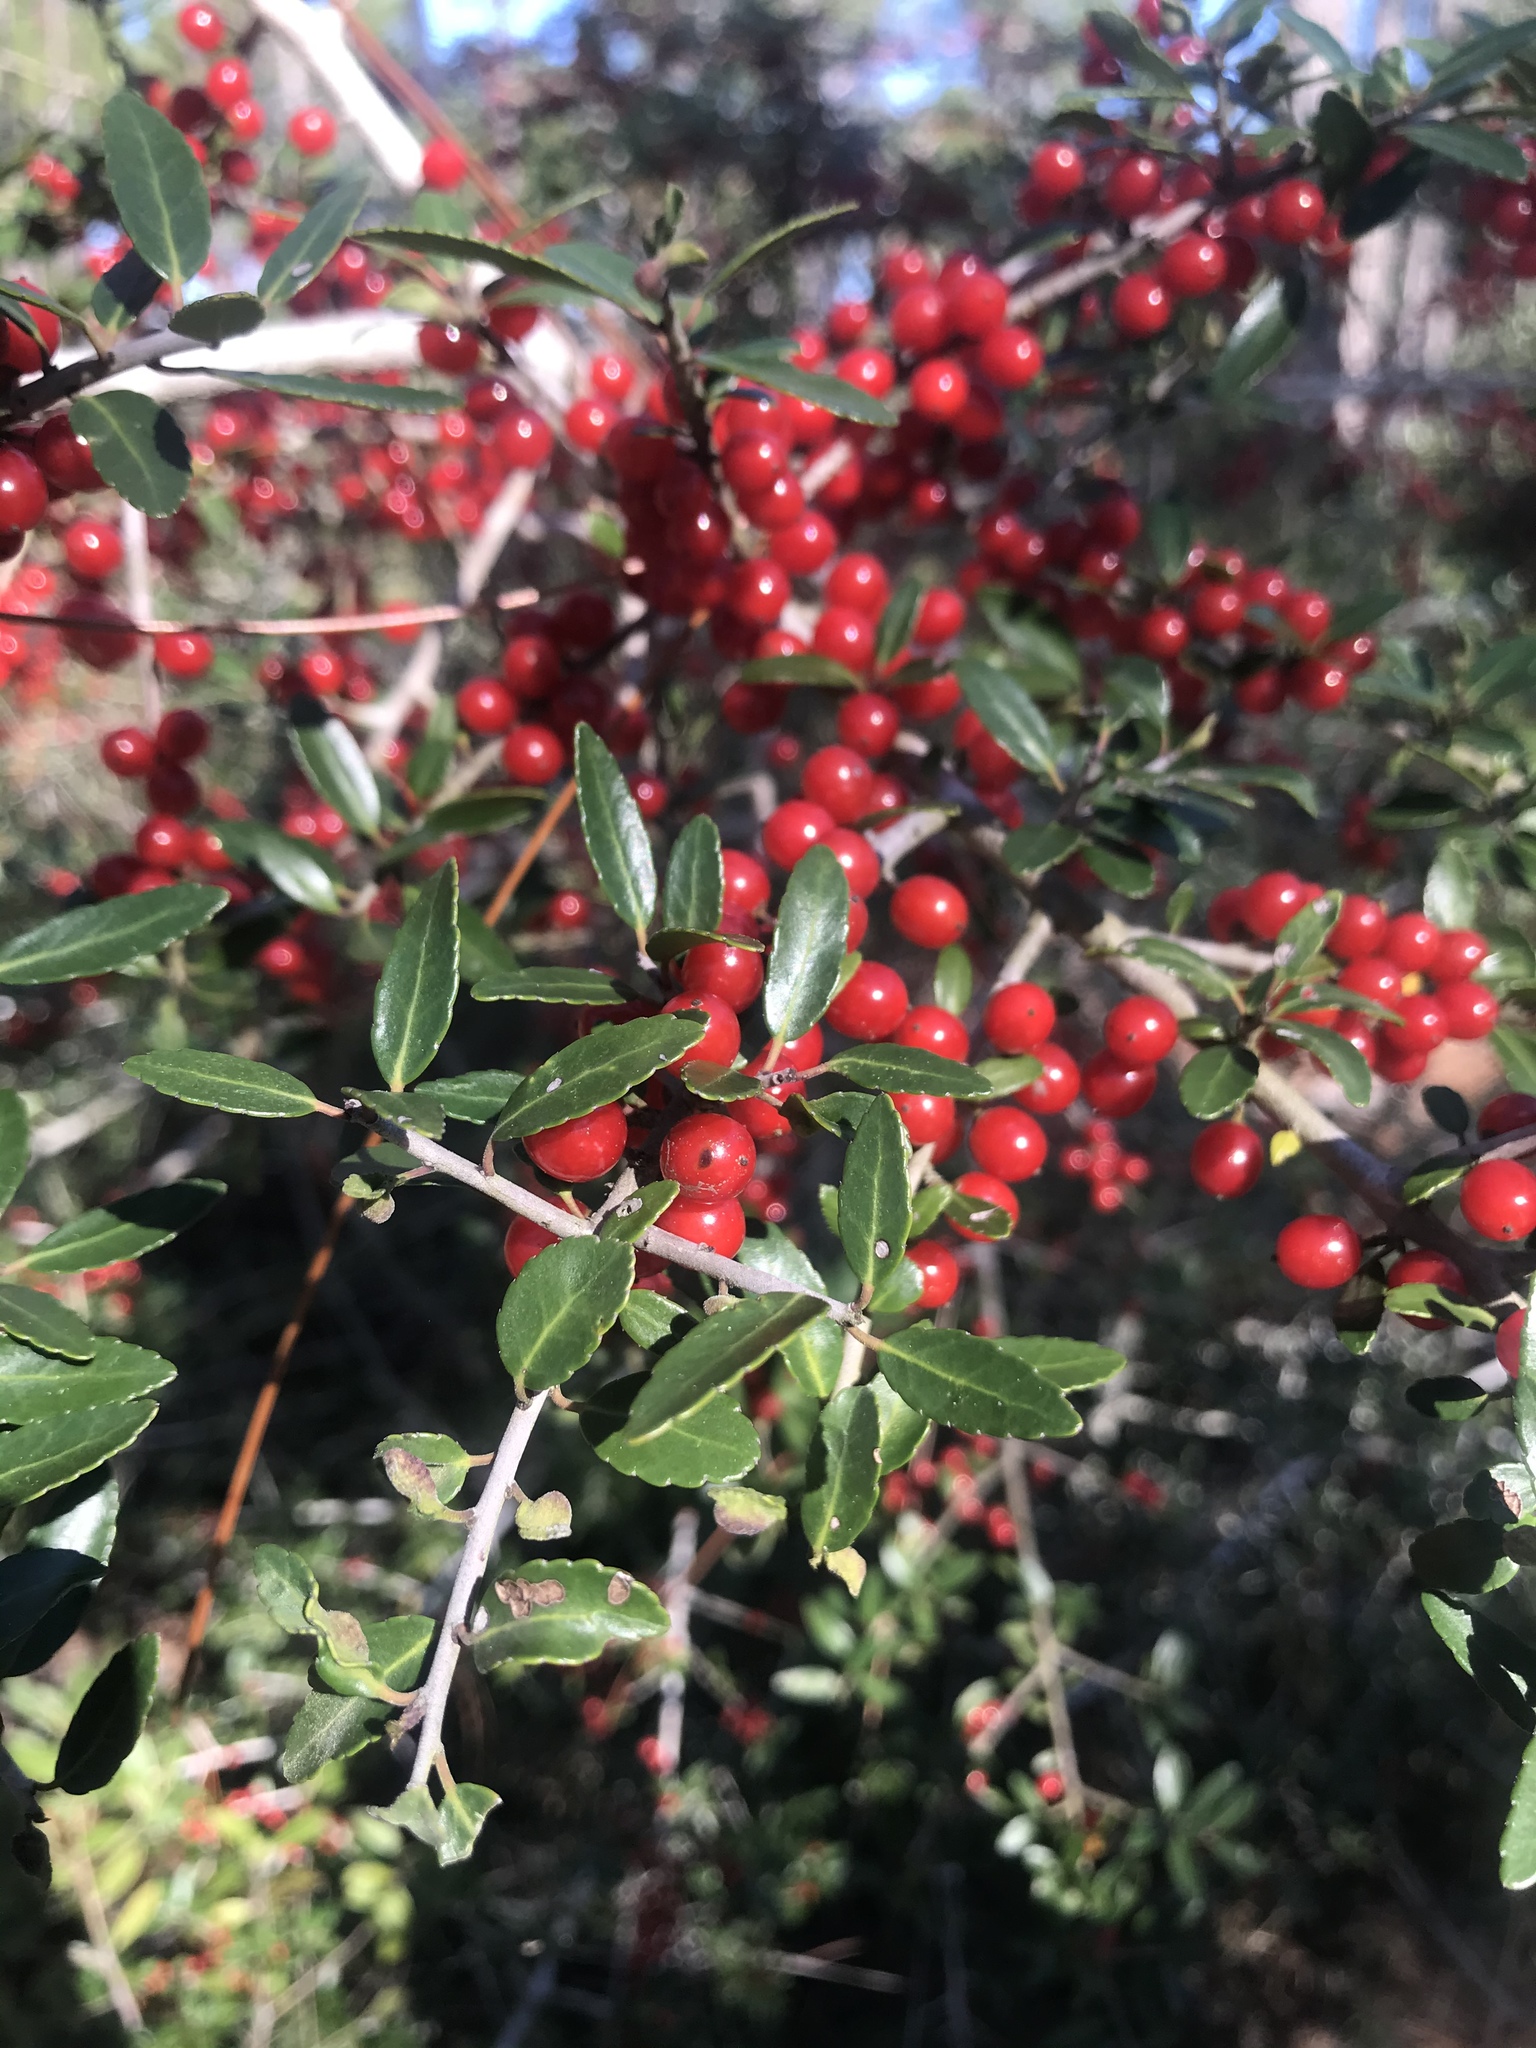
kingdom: Plantae
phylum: Tracheophyta
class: Magnoliopsida
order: Aquifoliales
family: Aquifoliaceae
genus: Ilex
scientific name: Ilex vomitoria
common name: Yaupon holly
